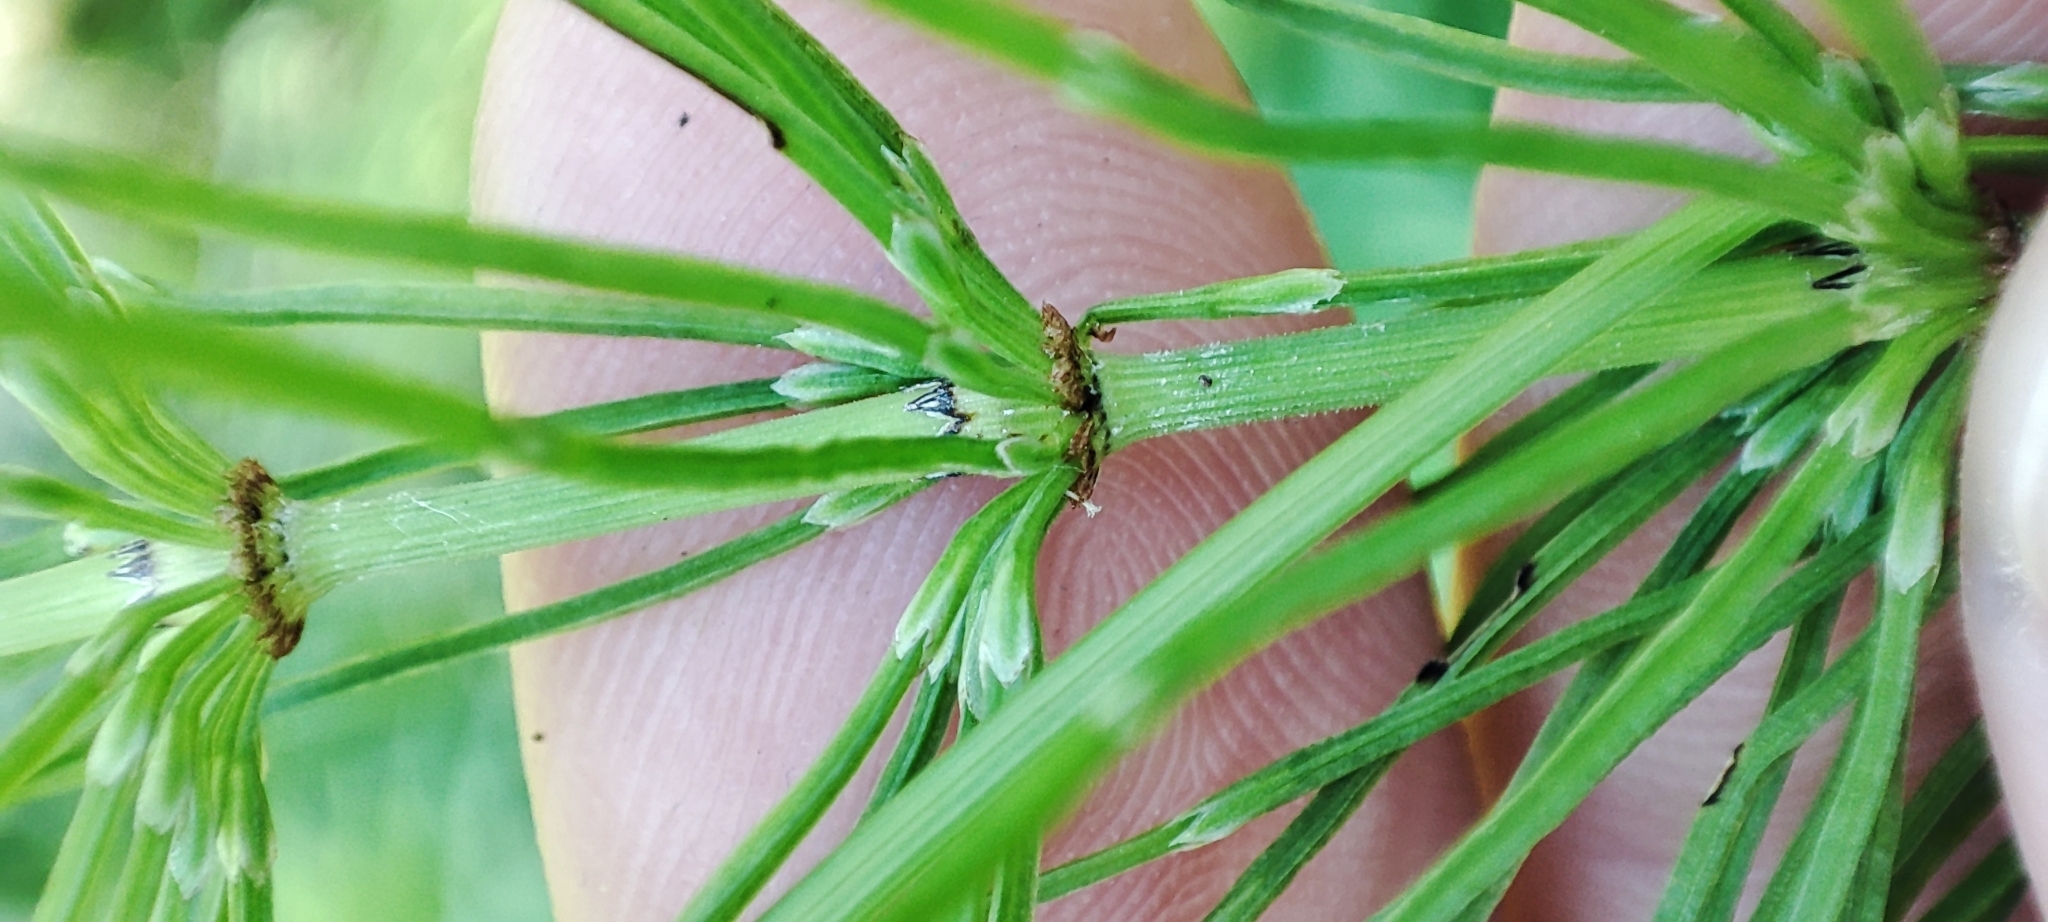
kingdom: Plantae
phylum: Tracheophyta
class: Polypodiopsida
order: Equisetales
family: Equisetaceae
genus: Equisetum
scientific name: Equisetum pratense
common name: Meadow horsetail
